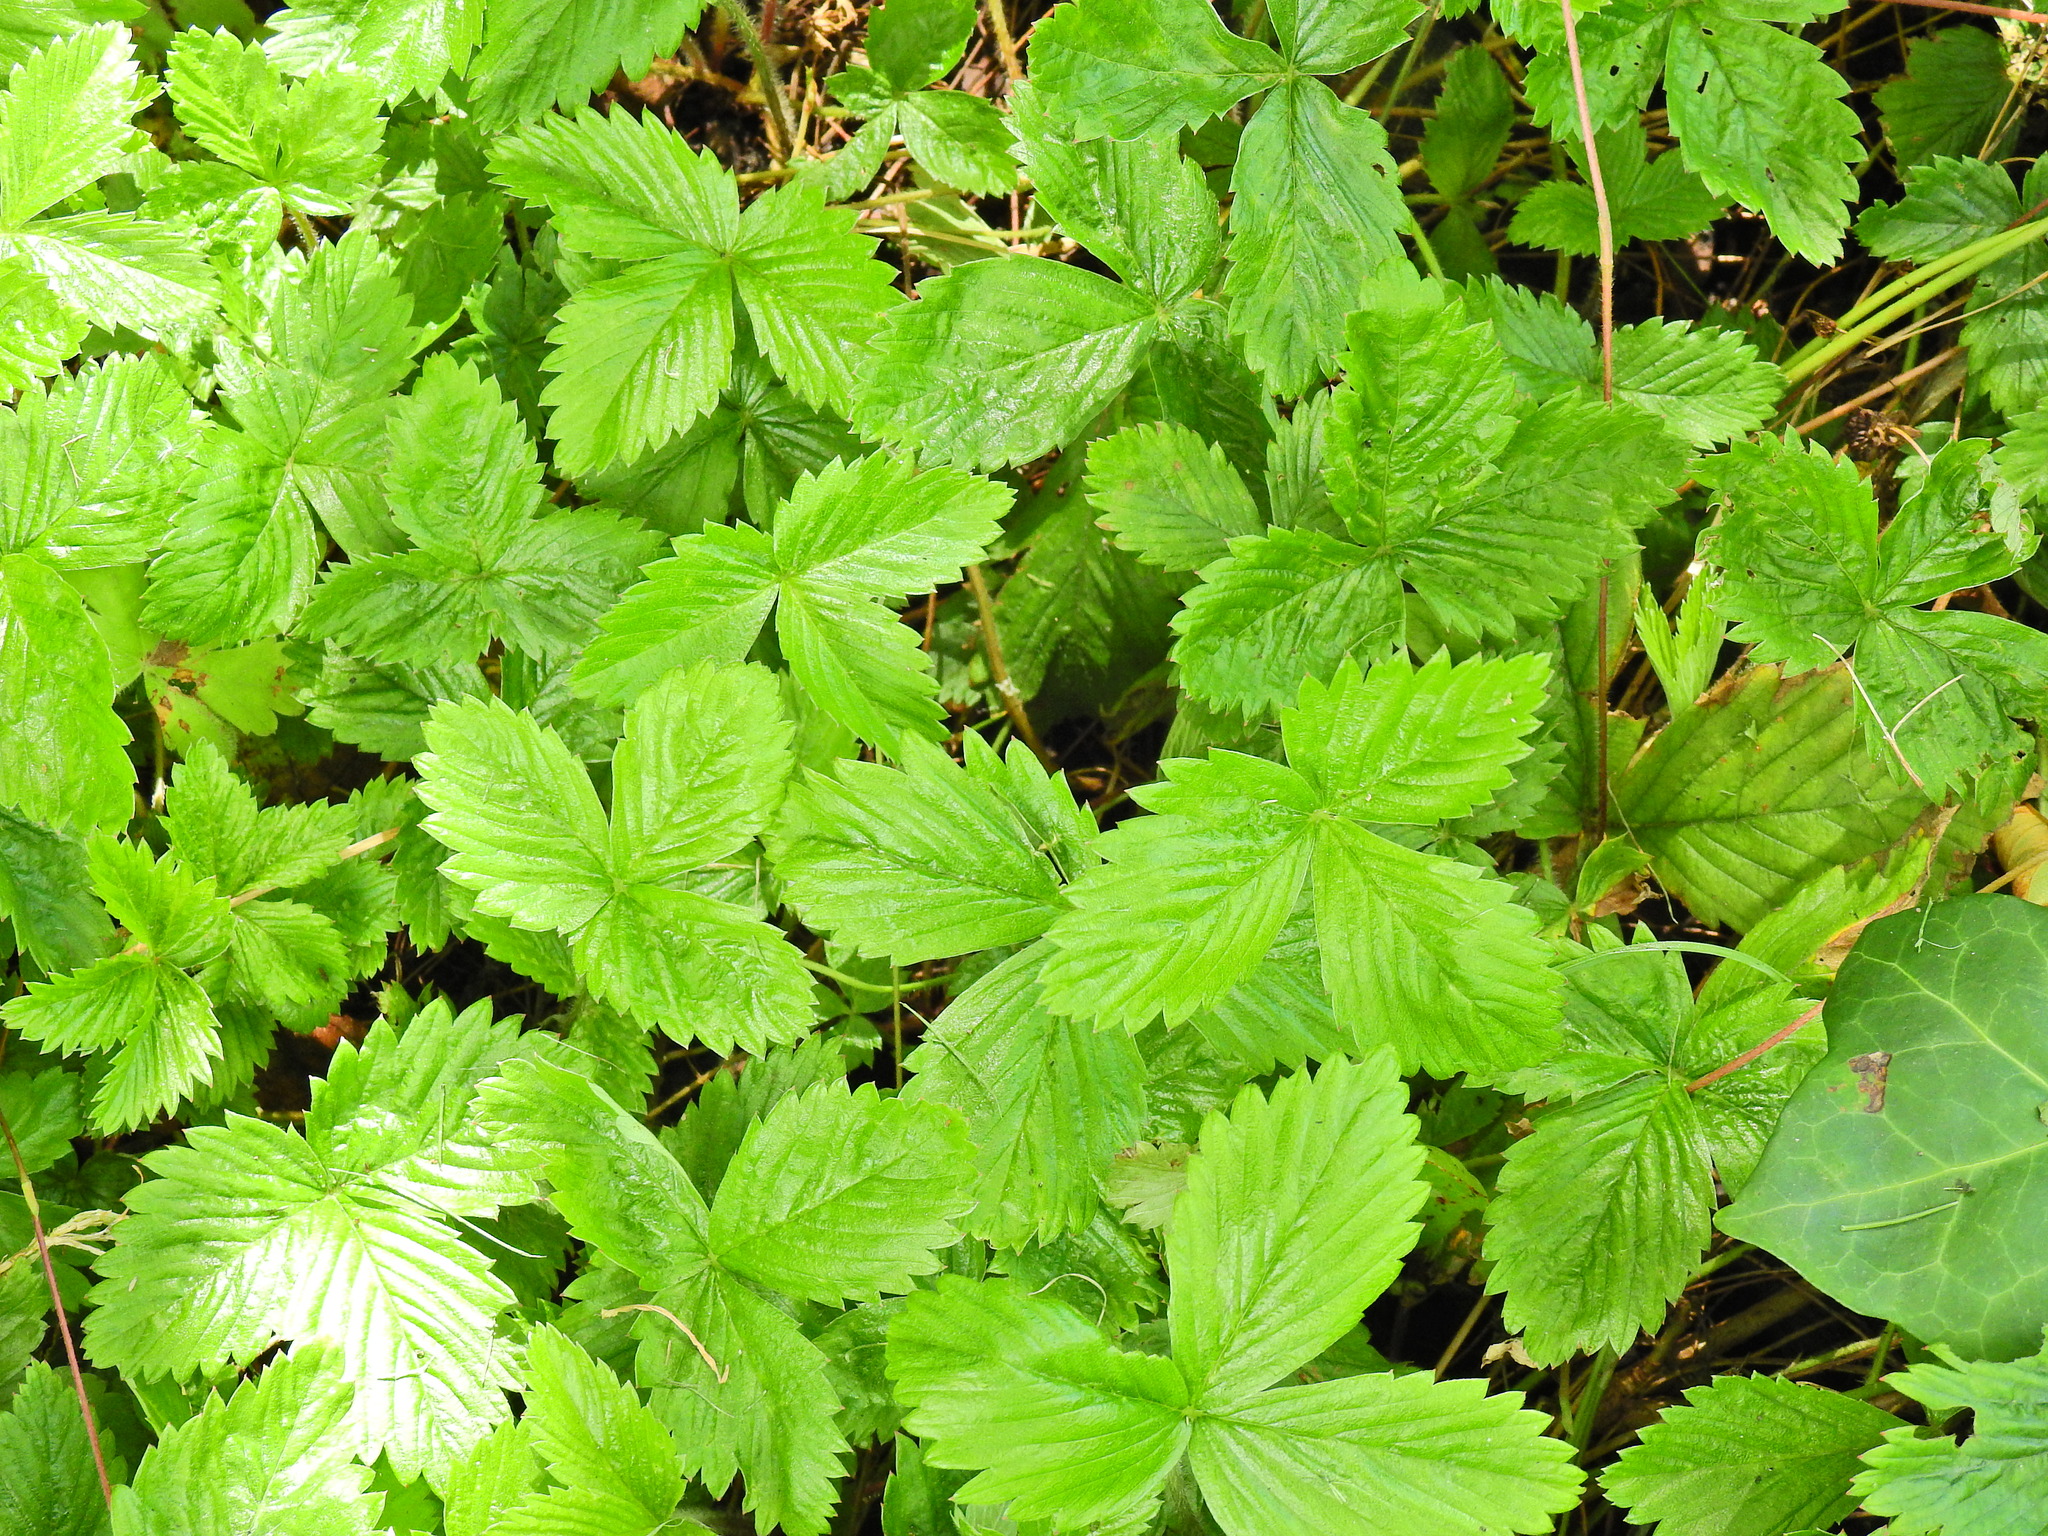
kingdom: Plantae
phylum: Tracheophyta
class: Magnoliopsida
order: Rosales
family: Rosaceae
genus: Fragaria
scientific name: Fragaria vesca
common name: Wild strawberry
